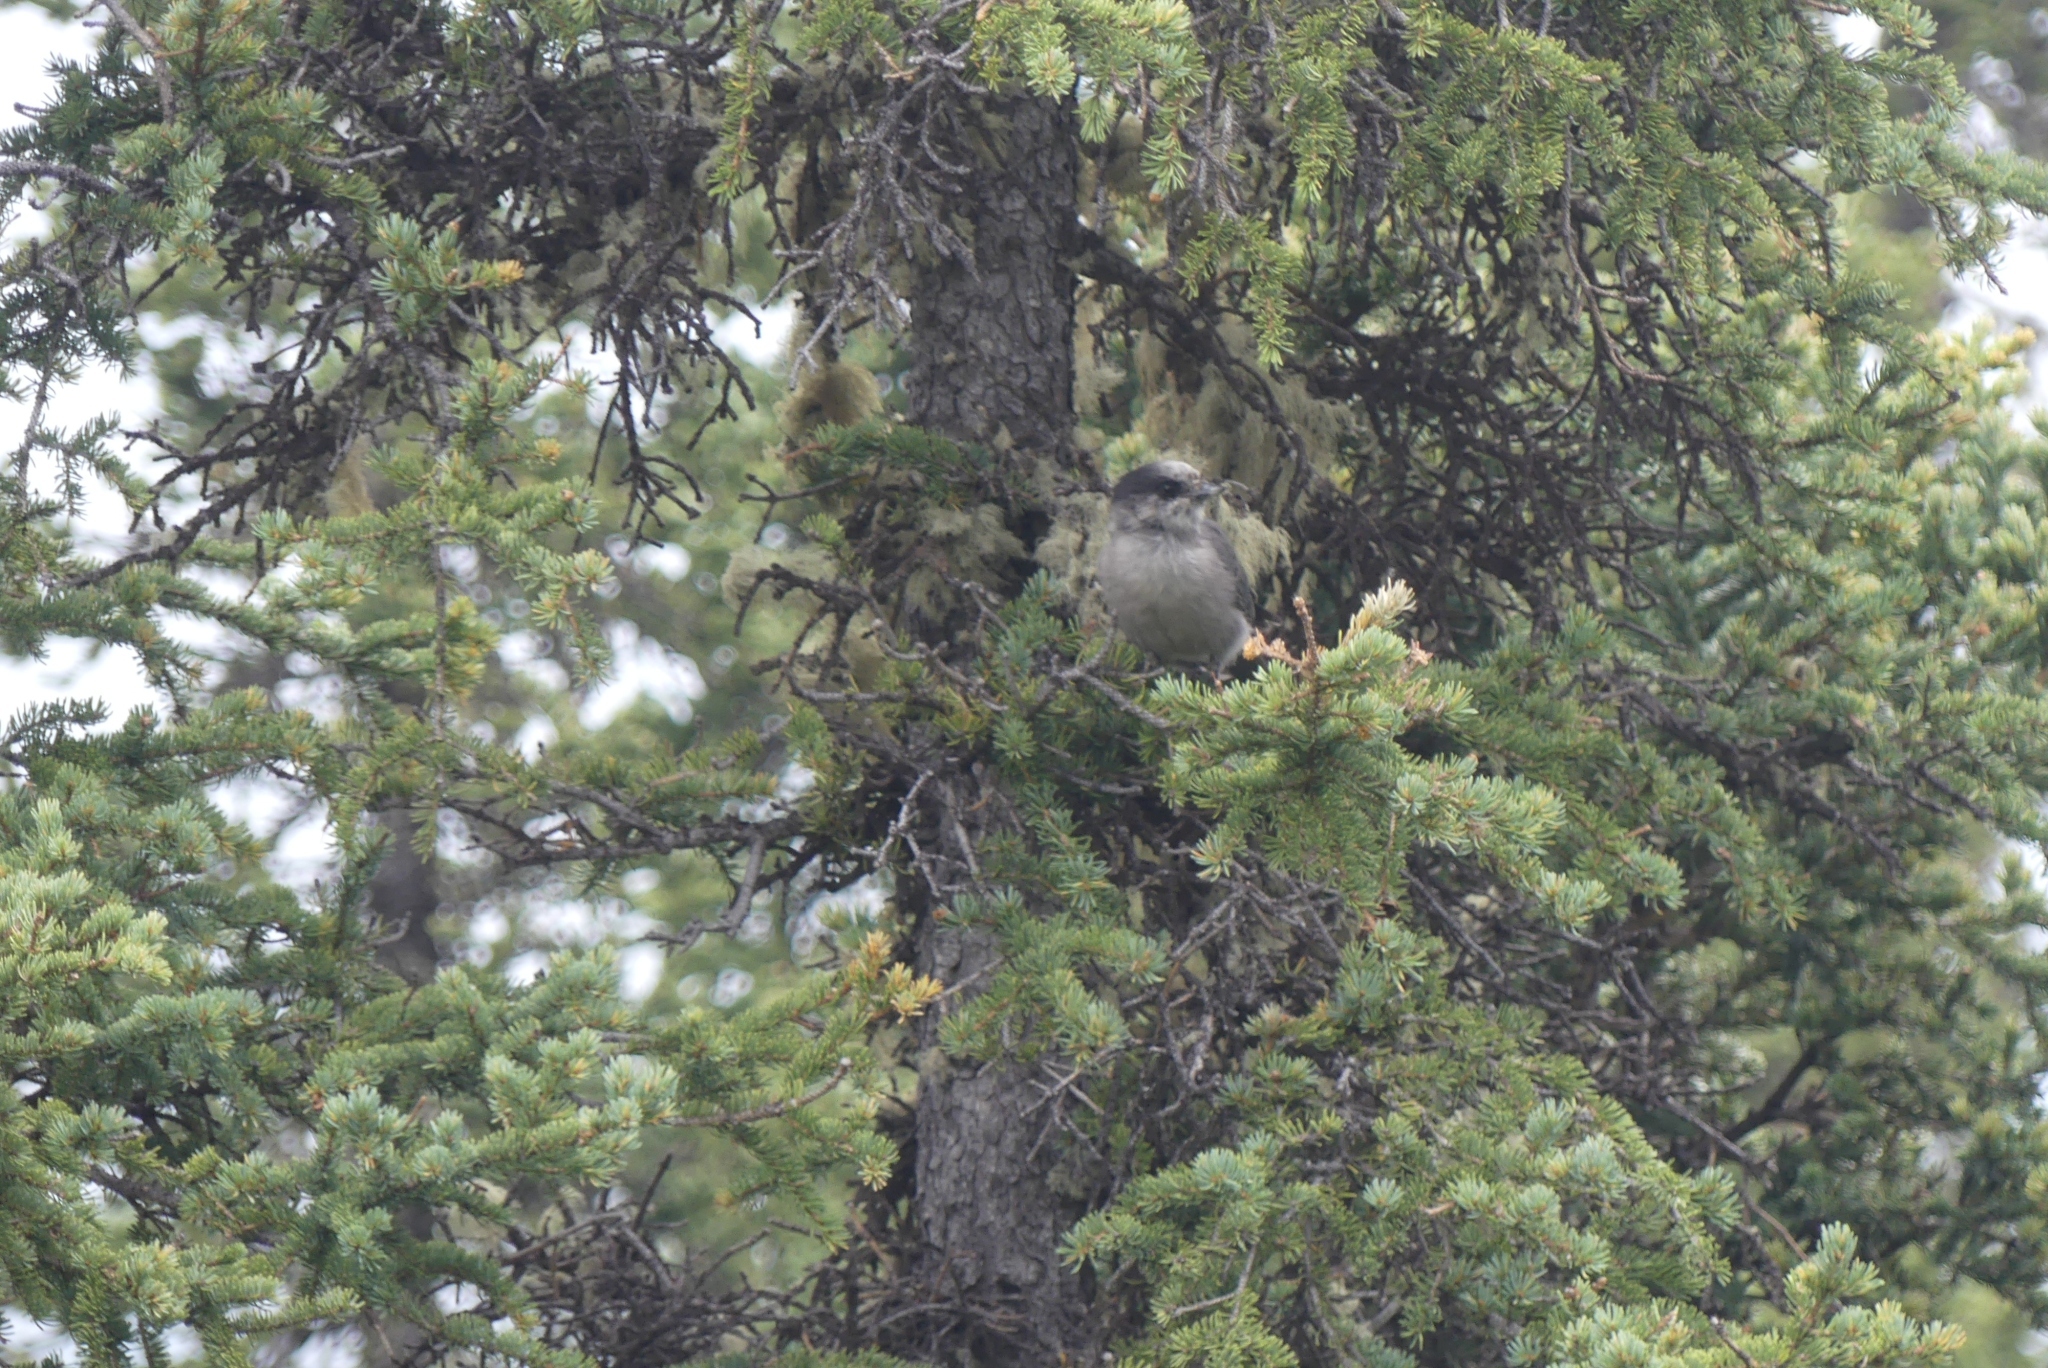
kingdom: Animalia
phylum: Chordata
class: Aves
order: Passeriformes
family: Corvidae
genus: Perisoreus
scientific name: Perisoreus canadensis
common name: Gray jay
